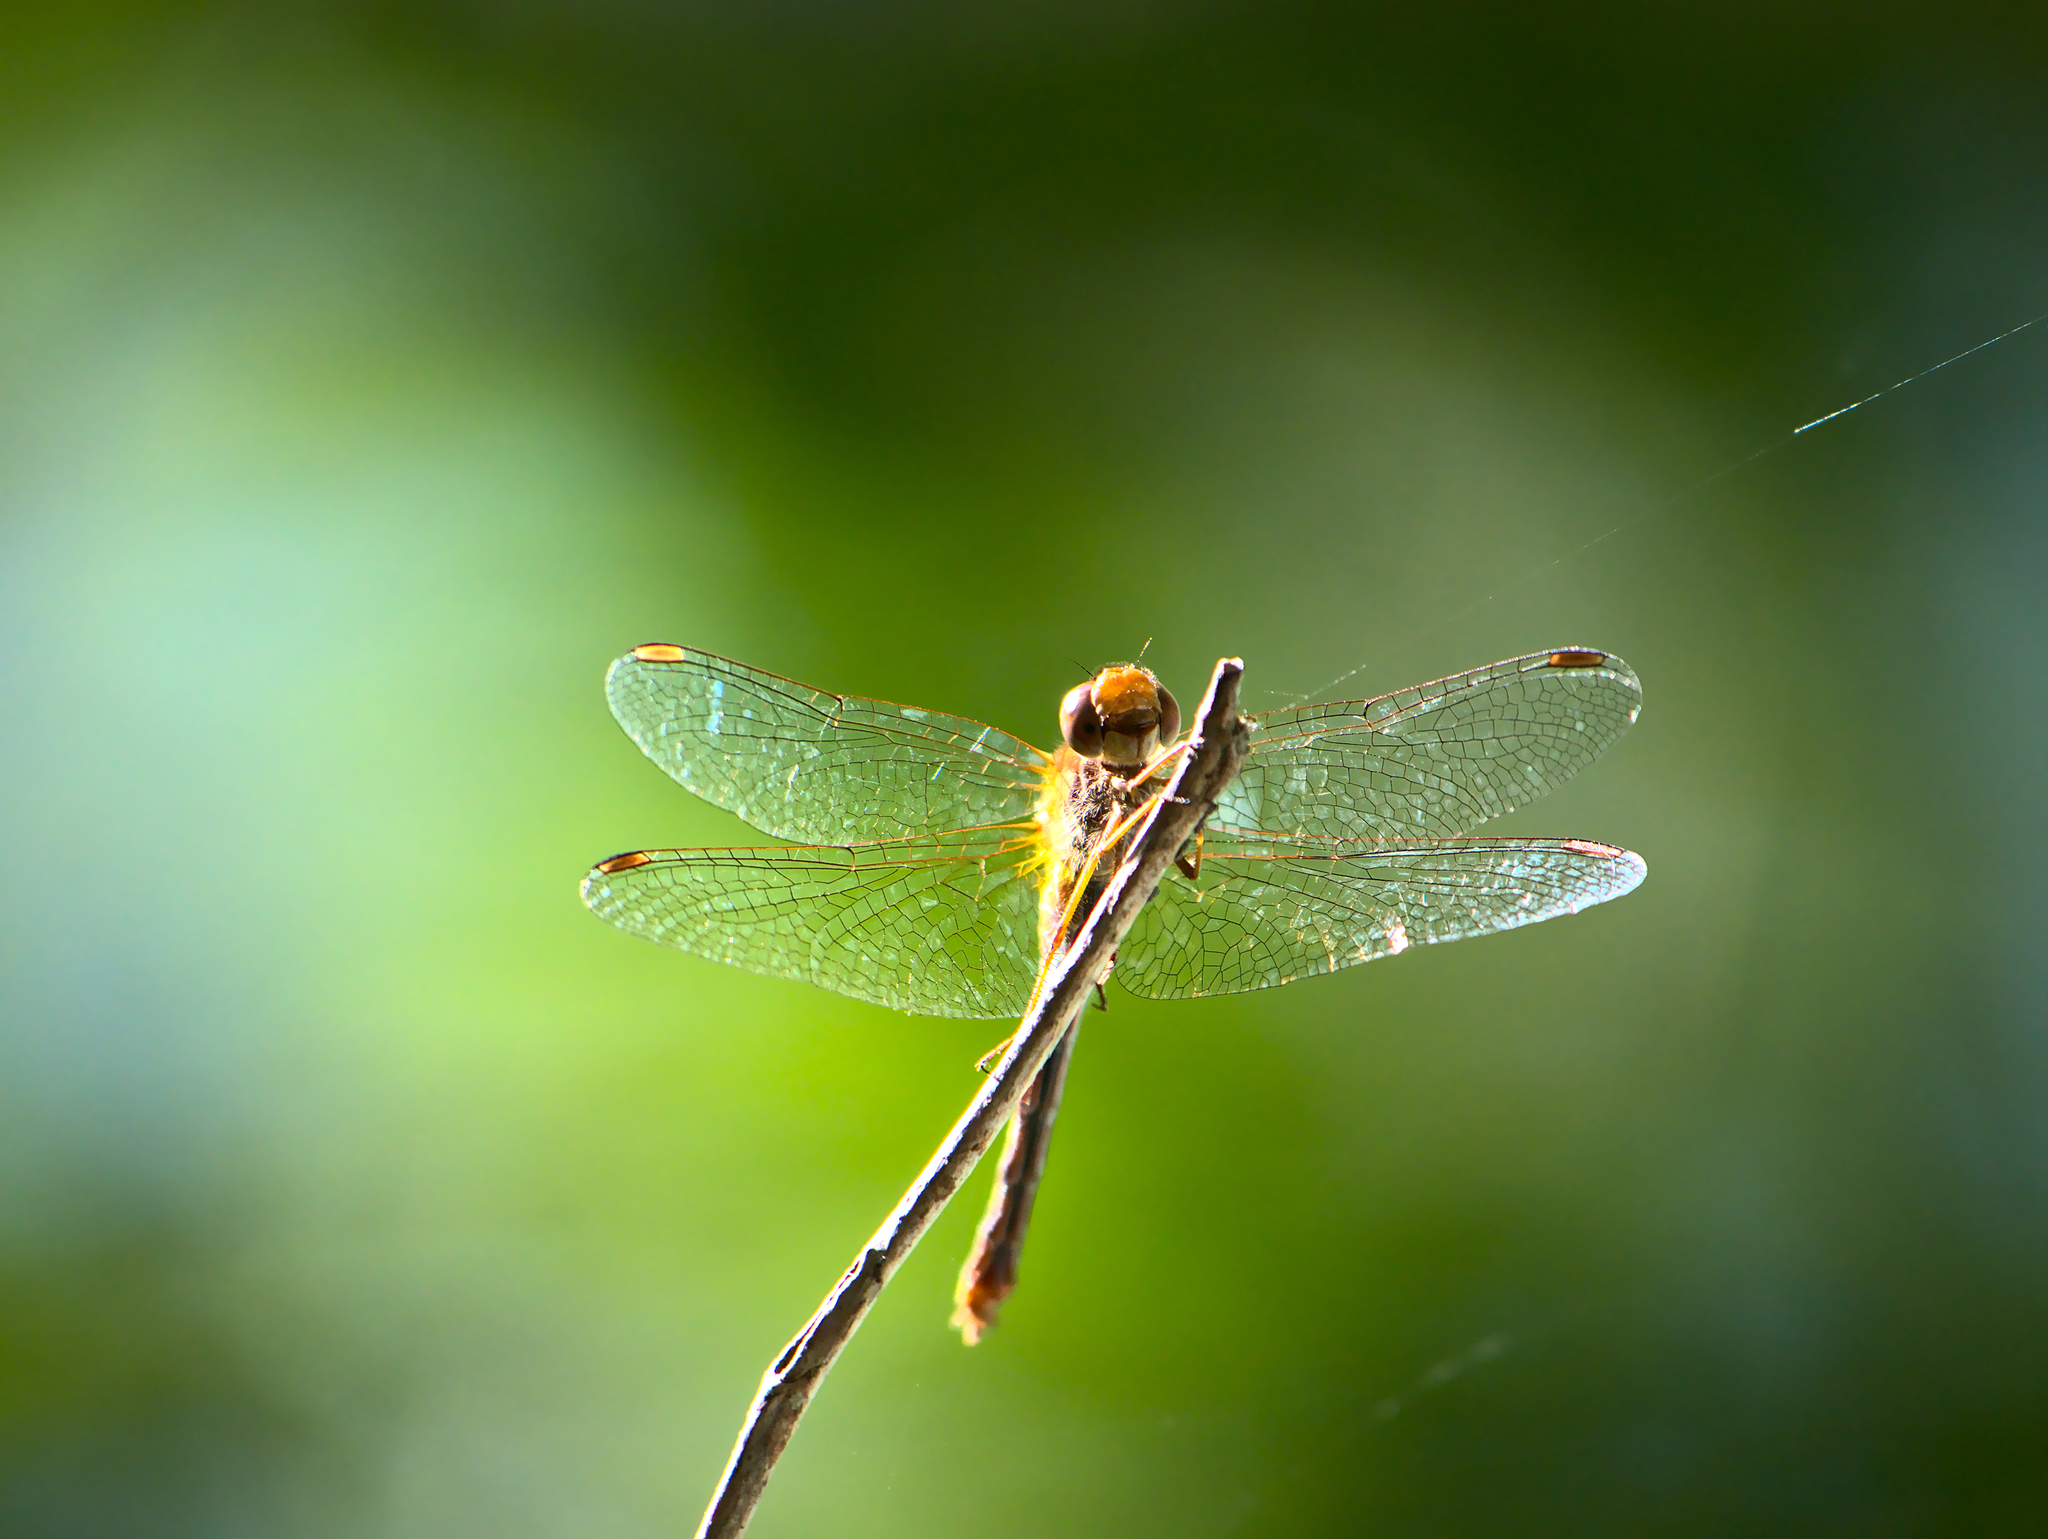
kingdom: Animalia
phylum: Arthropoda
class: Insecta
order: Odonata
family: Libellulidae
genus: Sympetrum
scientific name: Sympetrum vicinum
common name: Autumn meadowhawk
